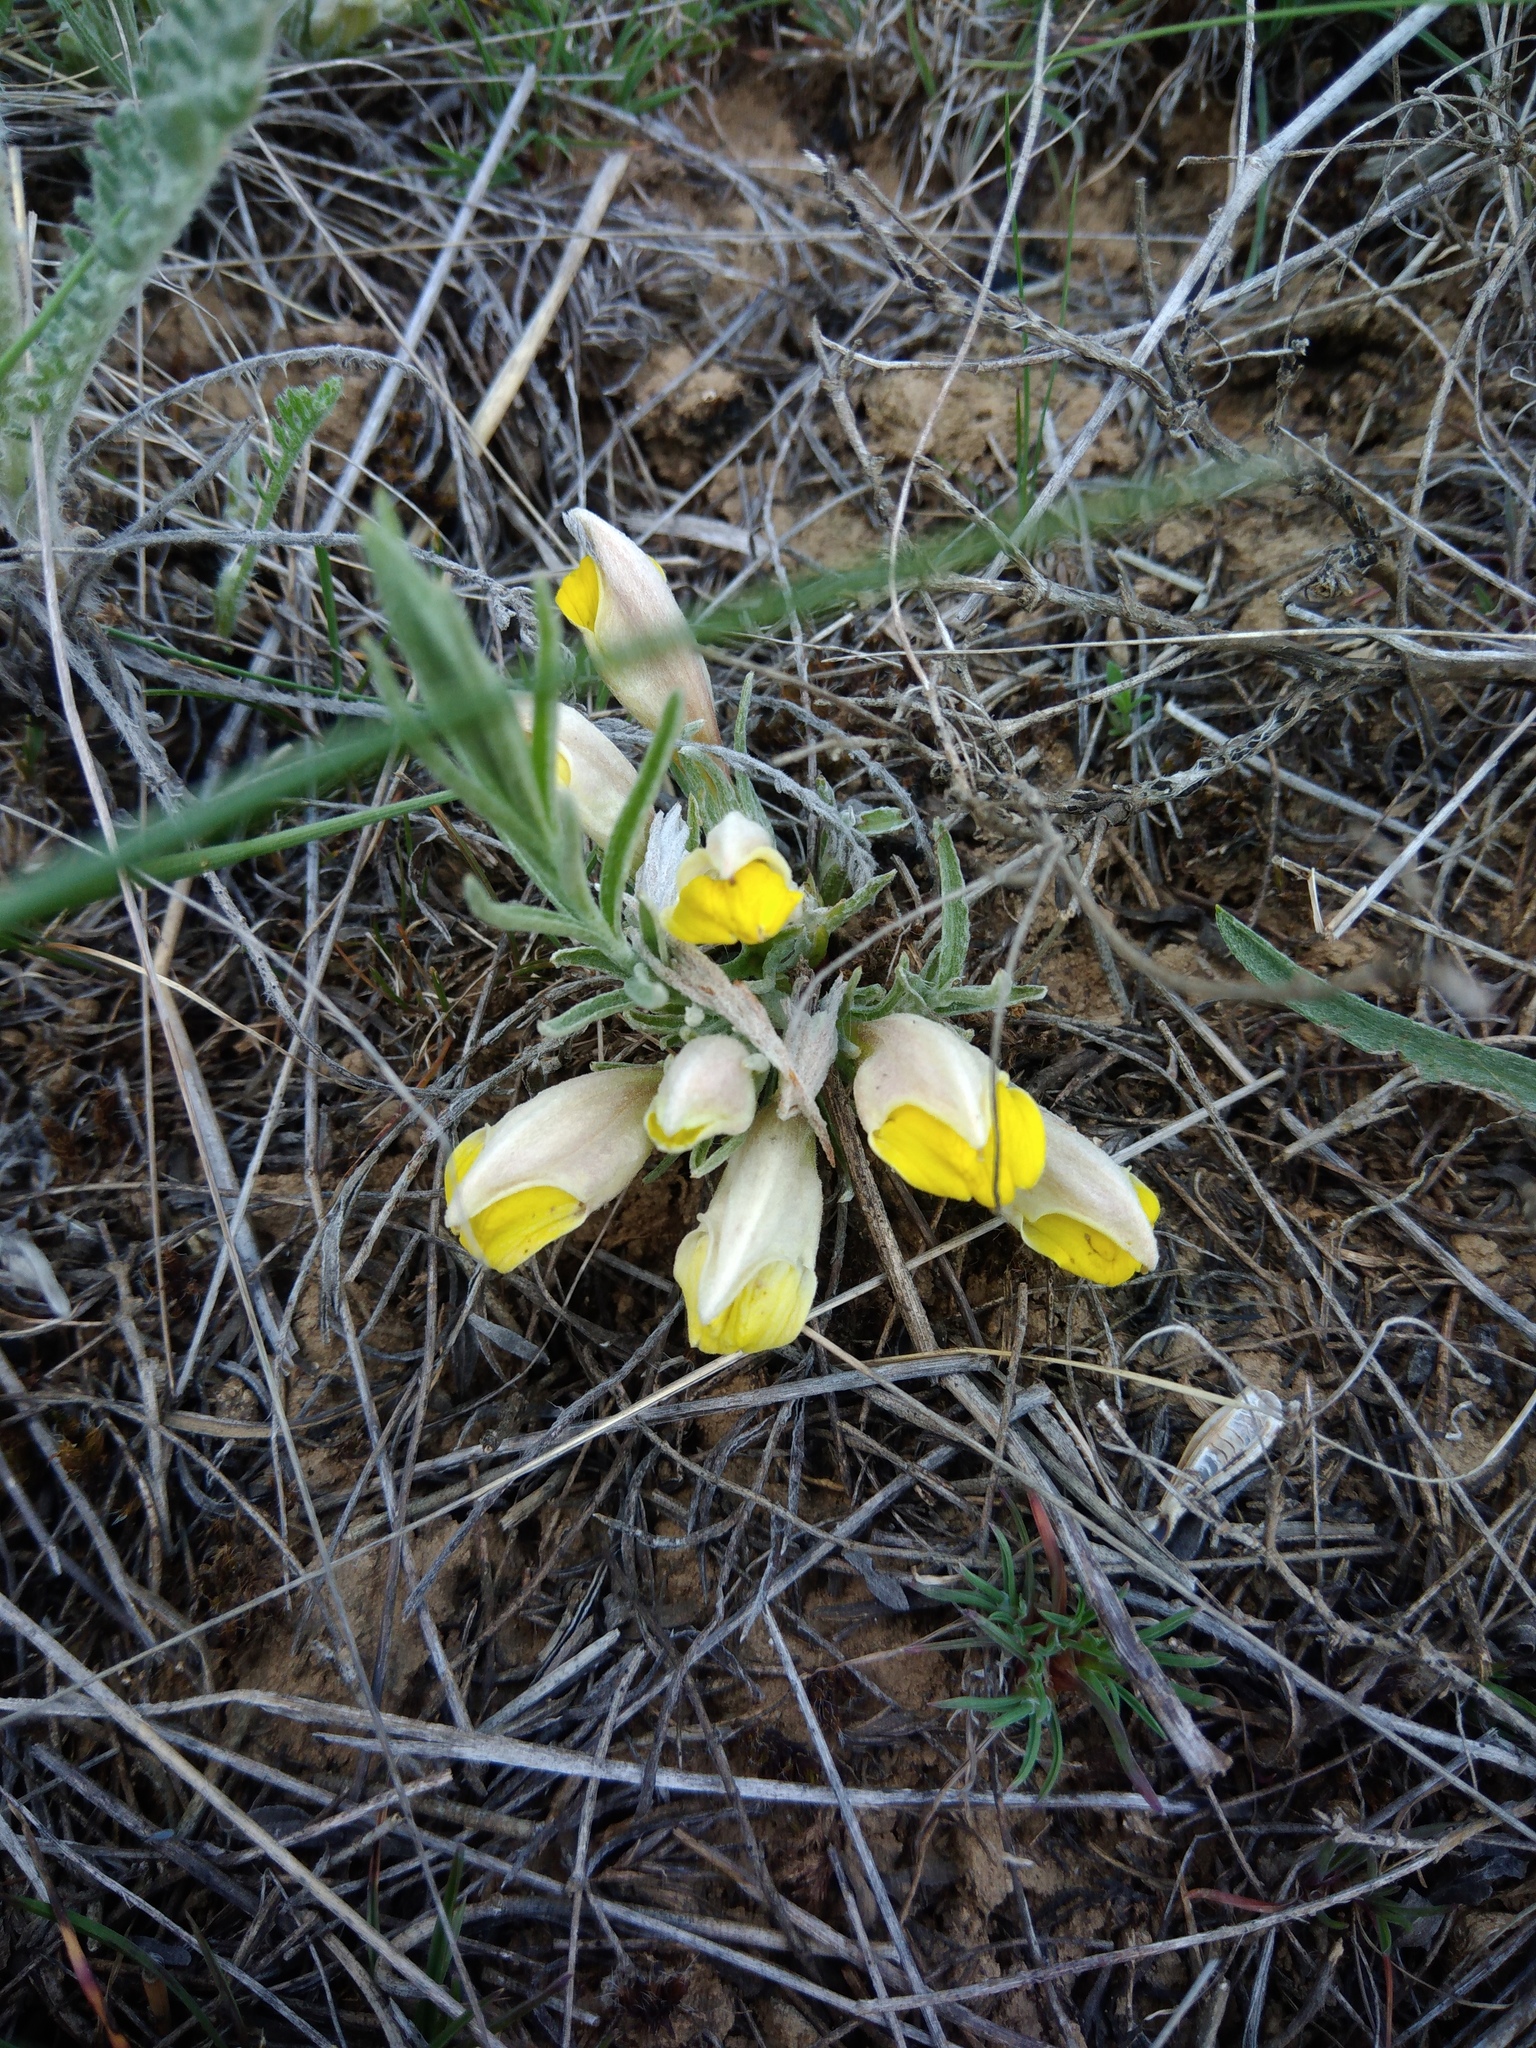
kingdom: Plantae
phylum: Tracheophyta
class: Magnoliopsida
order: Lamiales
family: Orobanchaceae
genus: Cymbaria
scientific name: Cymbaria borysthenica
